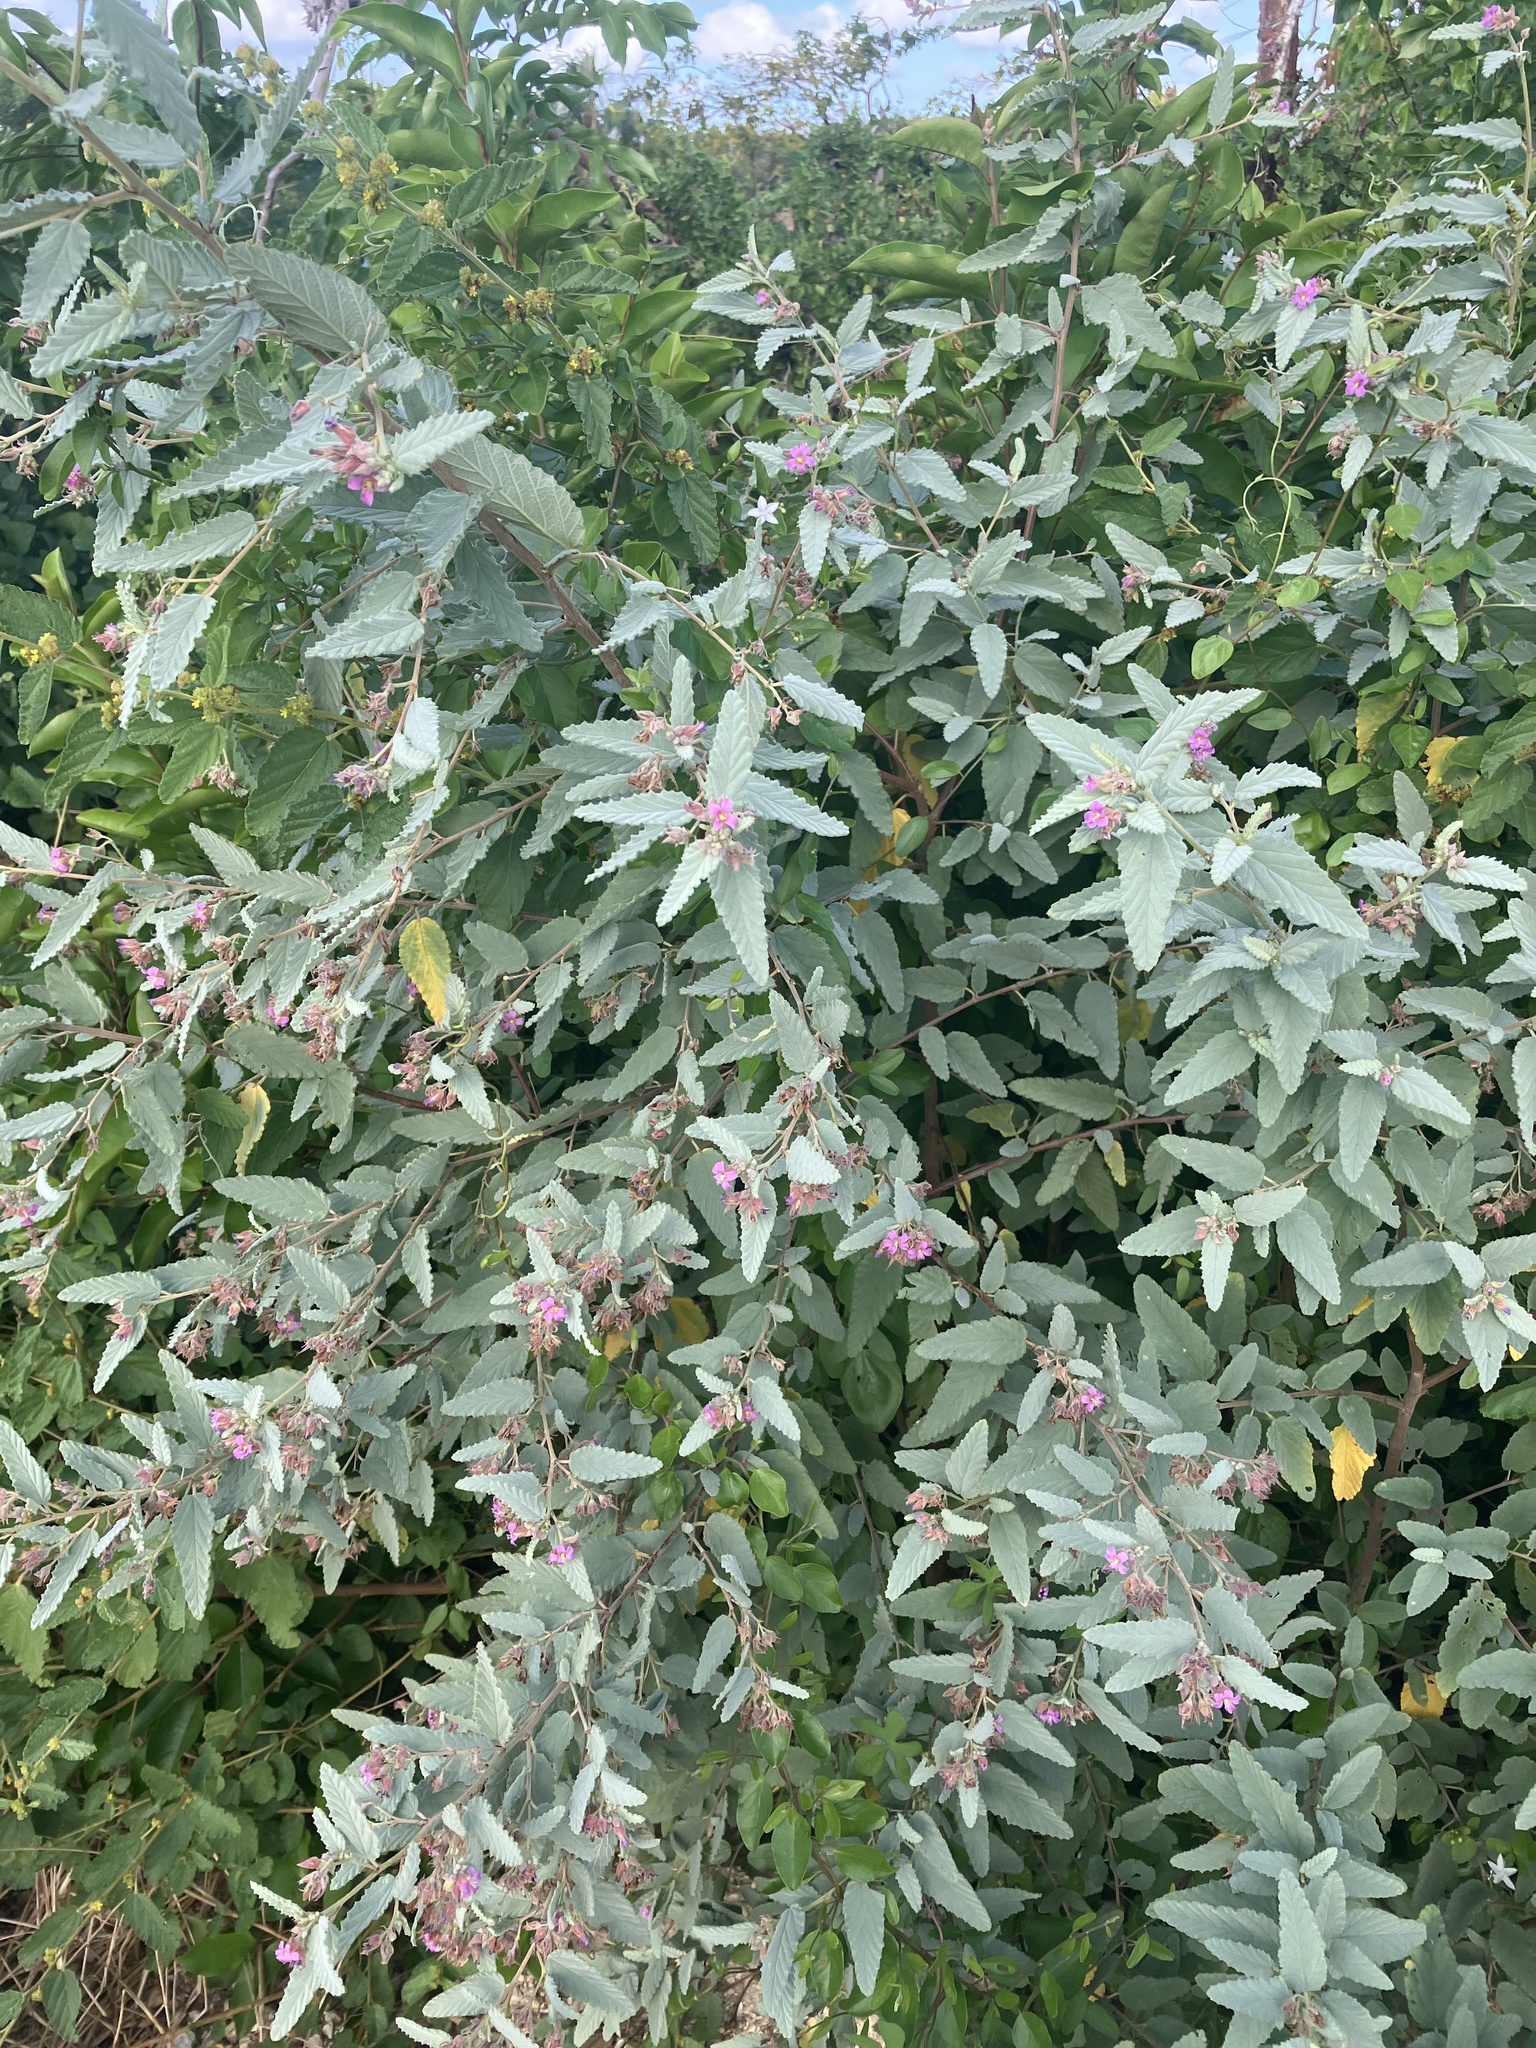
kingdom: Plantae
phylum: Tracheophyta
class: Magnoliopsida
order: Malvales
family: Malvaceae
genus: Melochia
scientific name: Melochia tomentosa
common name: Black torch
